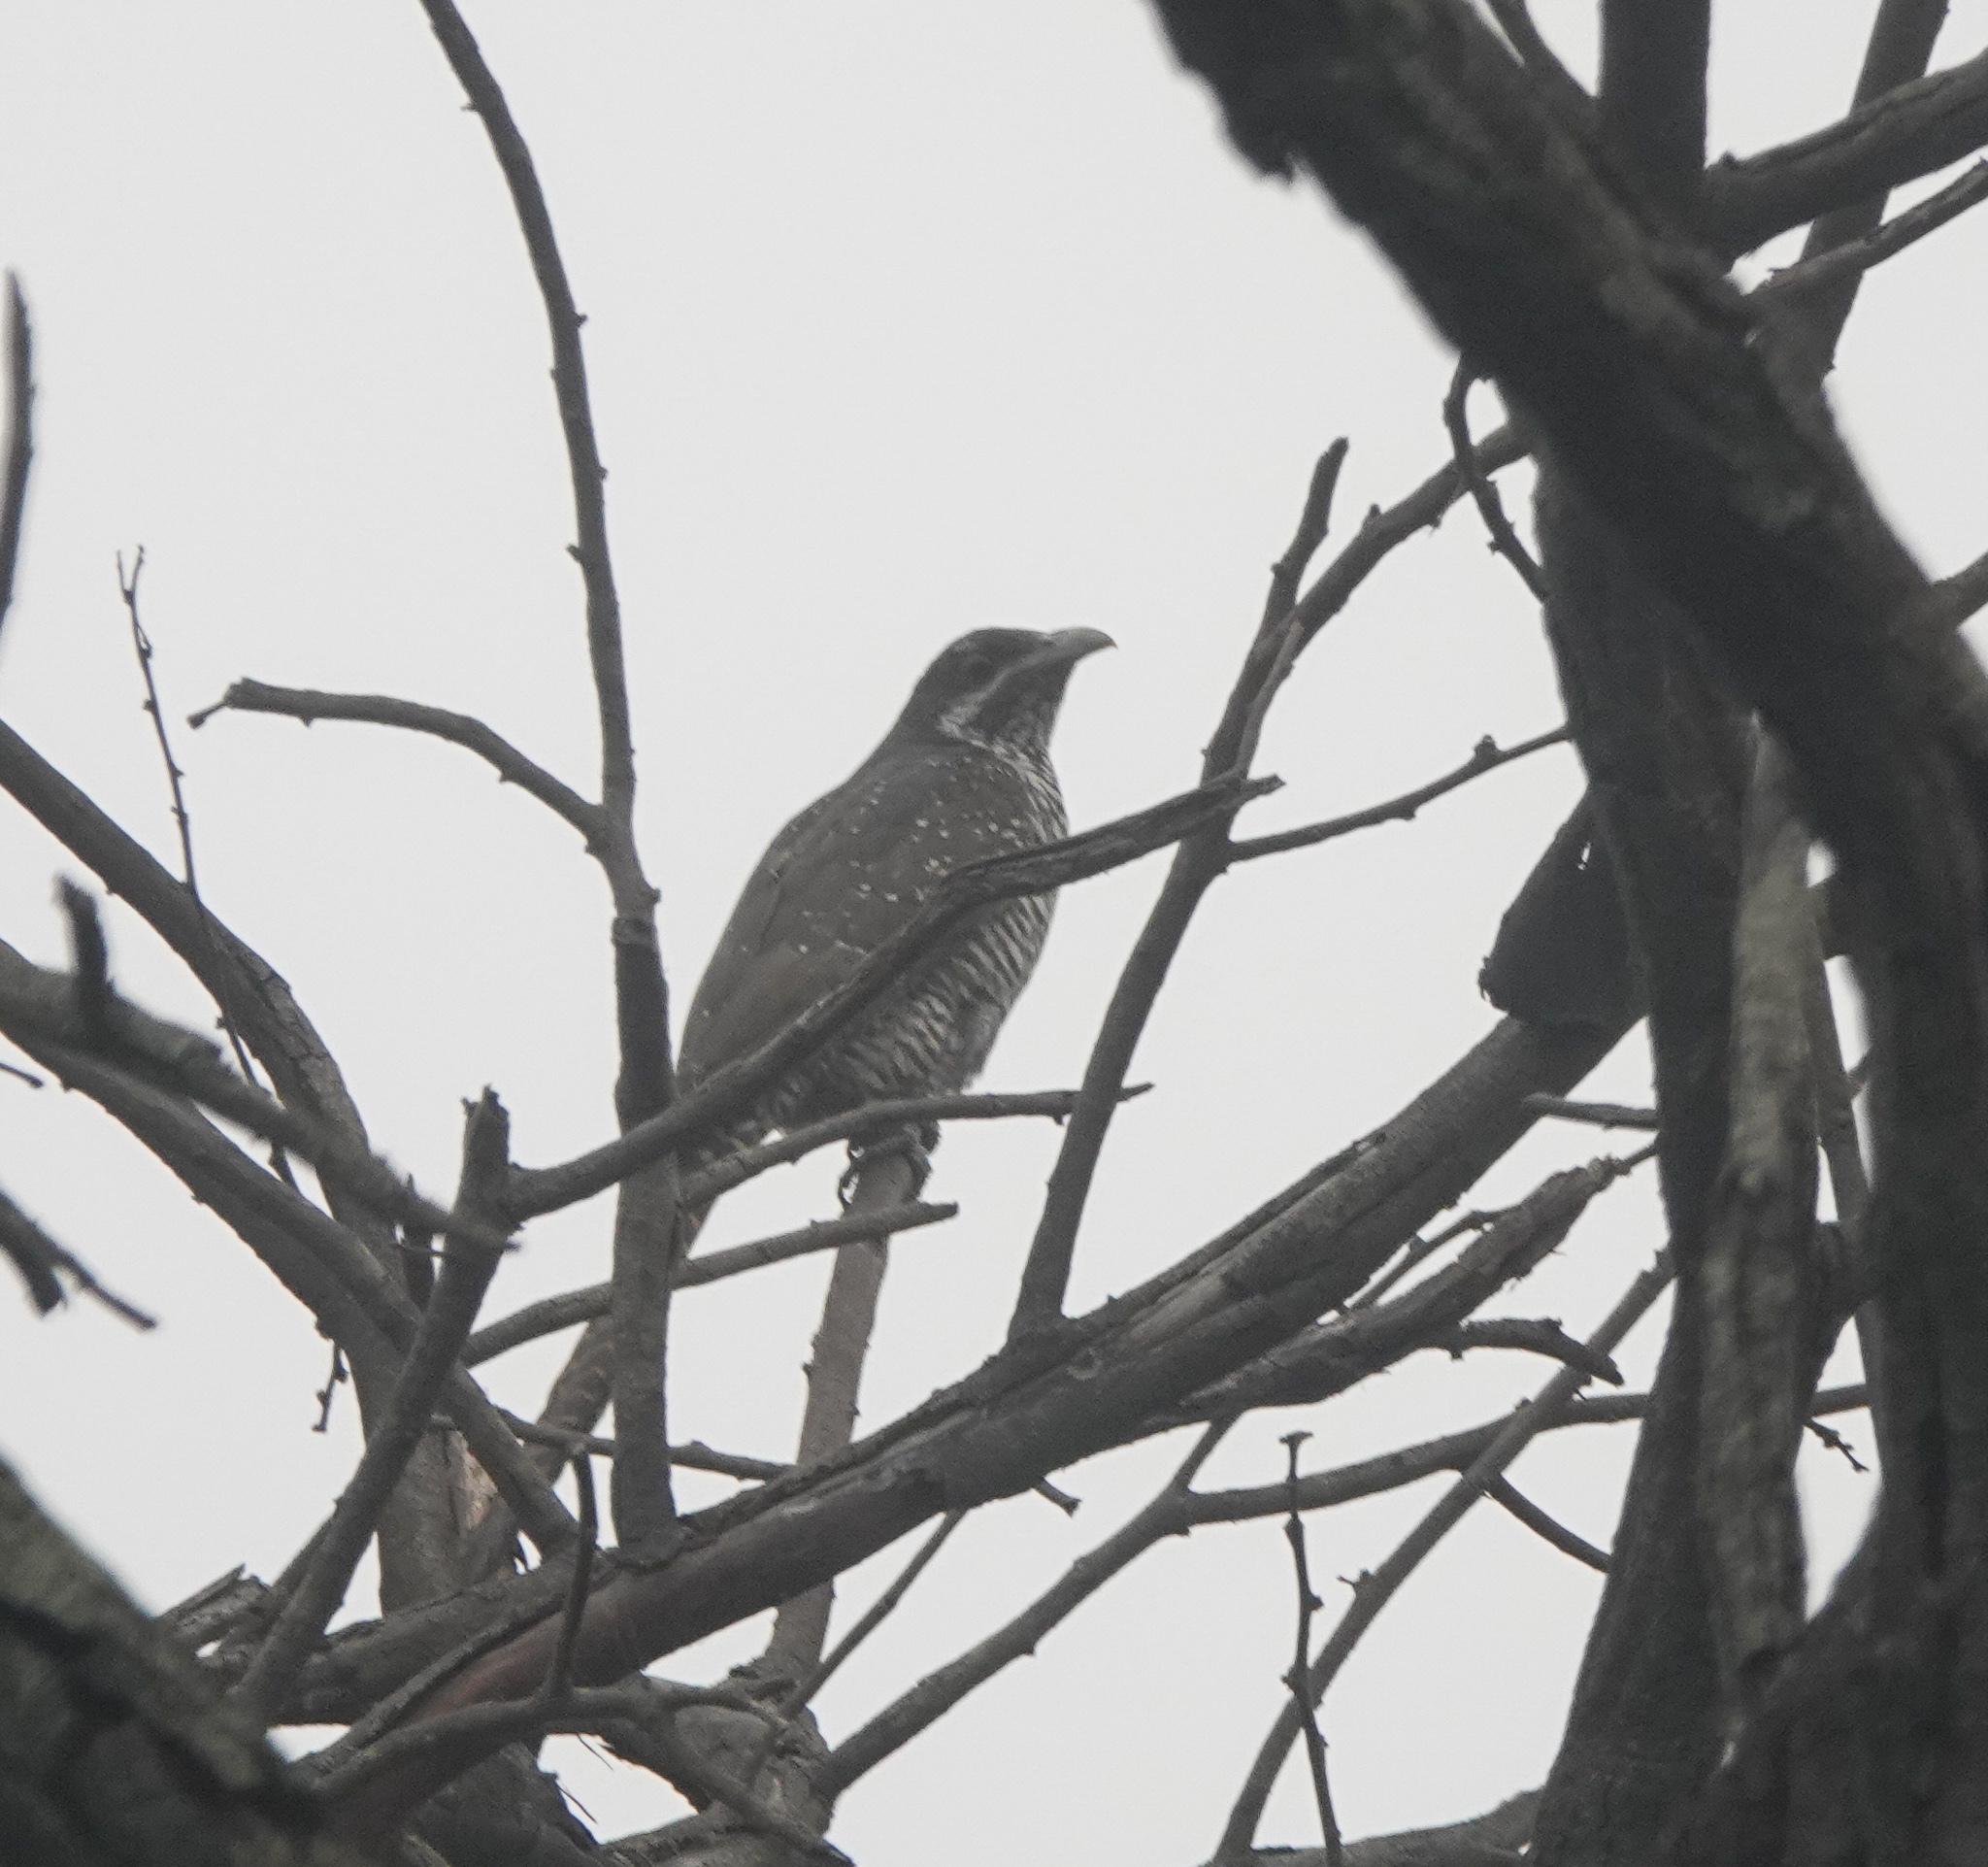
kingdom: Animalia
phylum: Chordata
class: Aves
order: Cuculiformes
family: Cuculidae
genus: Eudynamys
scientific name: Eudynamys scolopaceus
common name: Asian koel
